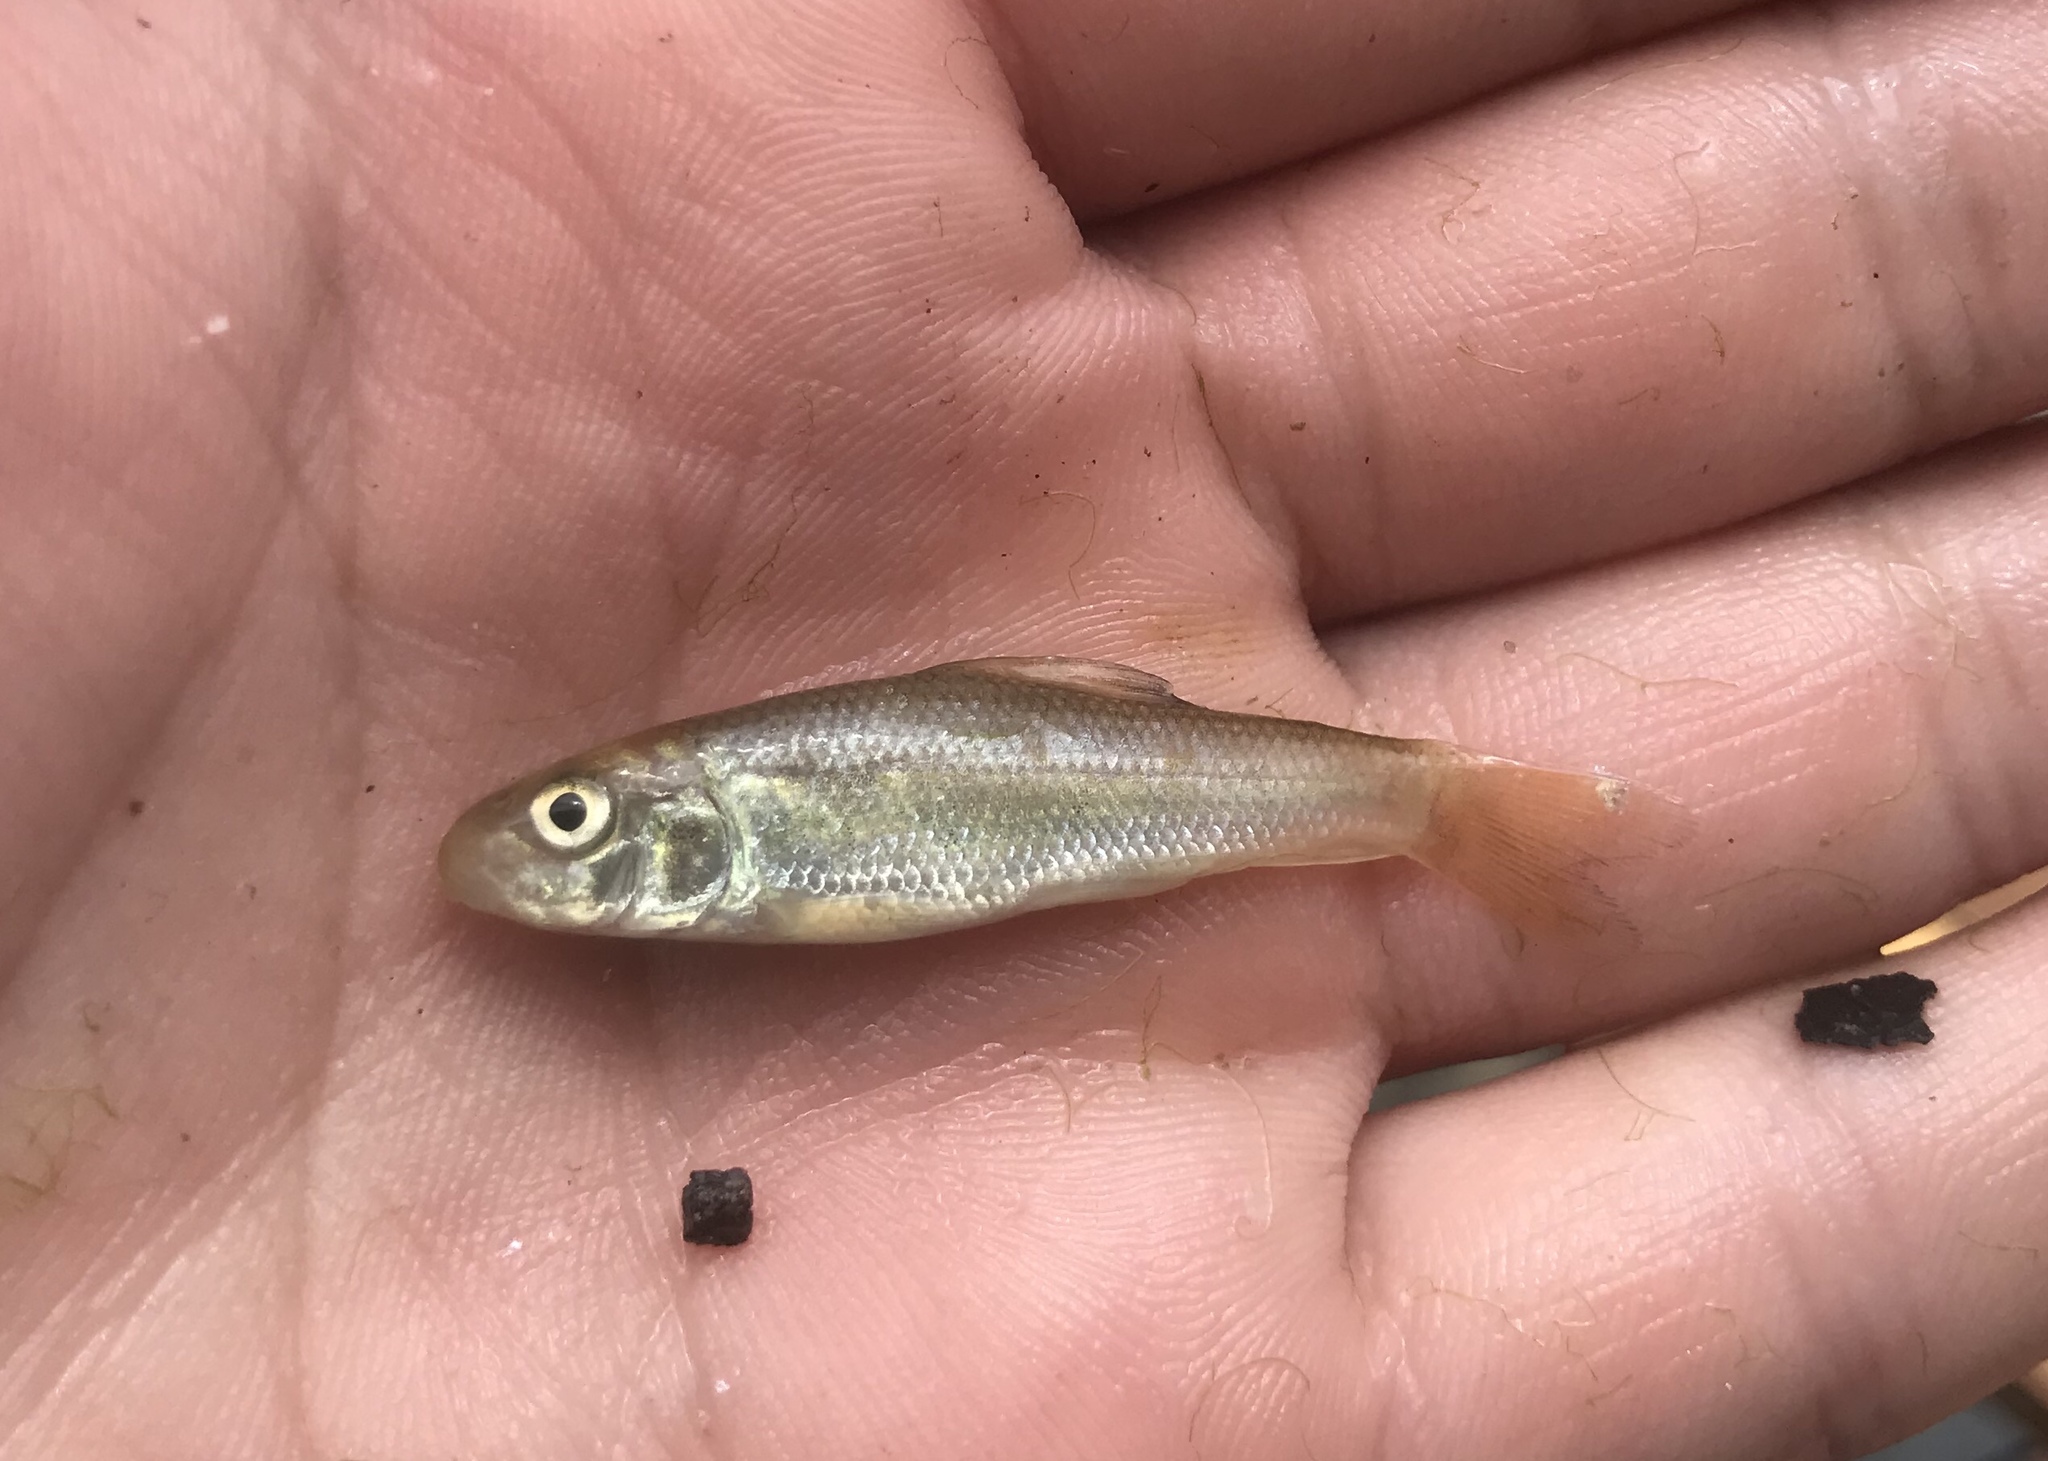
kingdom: Animalia
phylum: Chordata
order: Cypriniformes
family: Catostomidae
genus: Moxostoma
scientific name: Moxostoma congestum
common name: Gray redhorse
